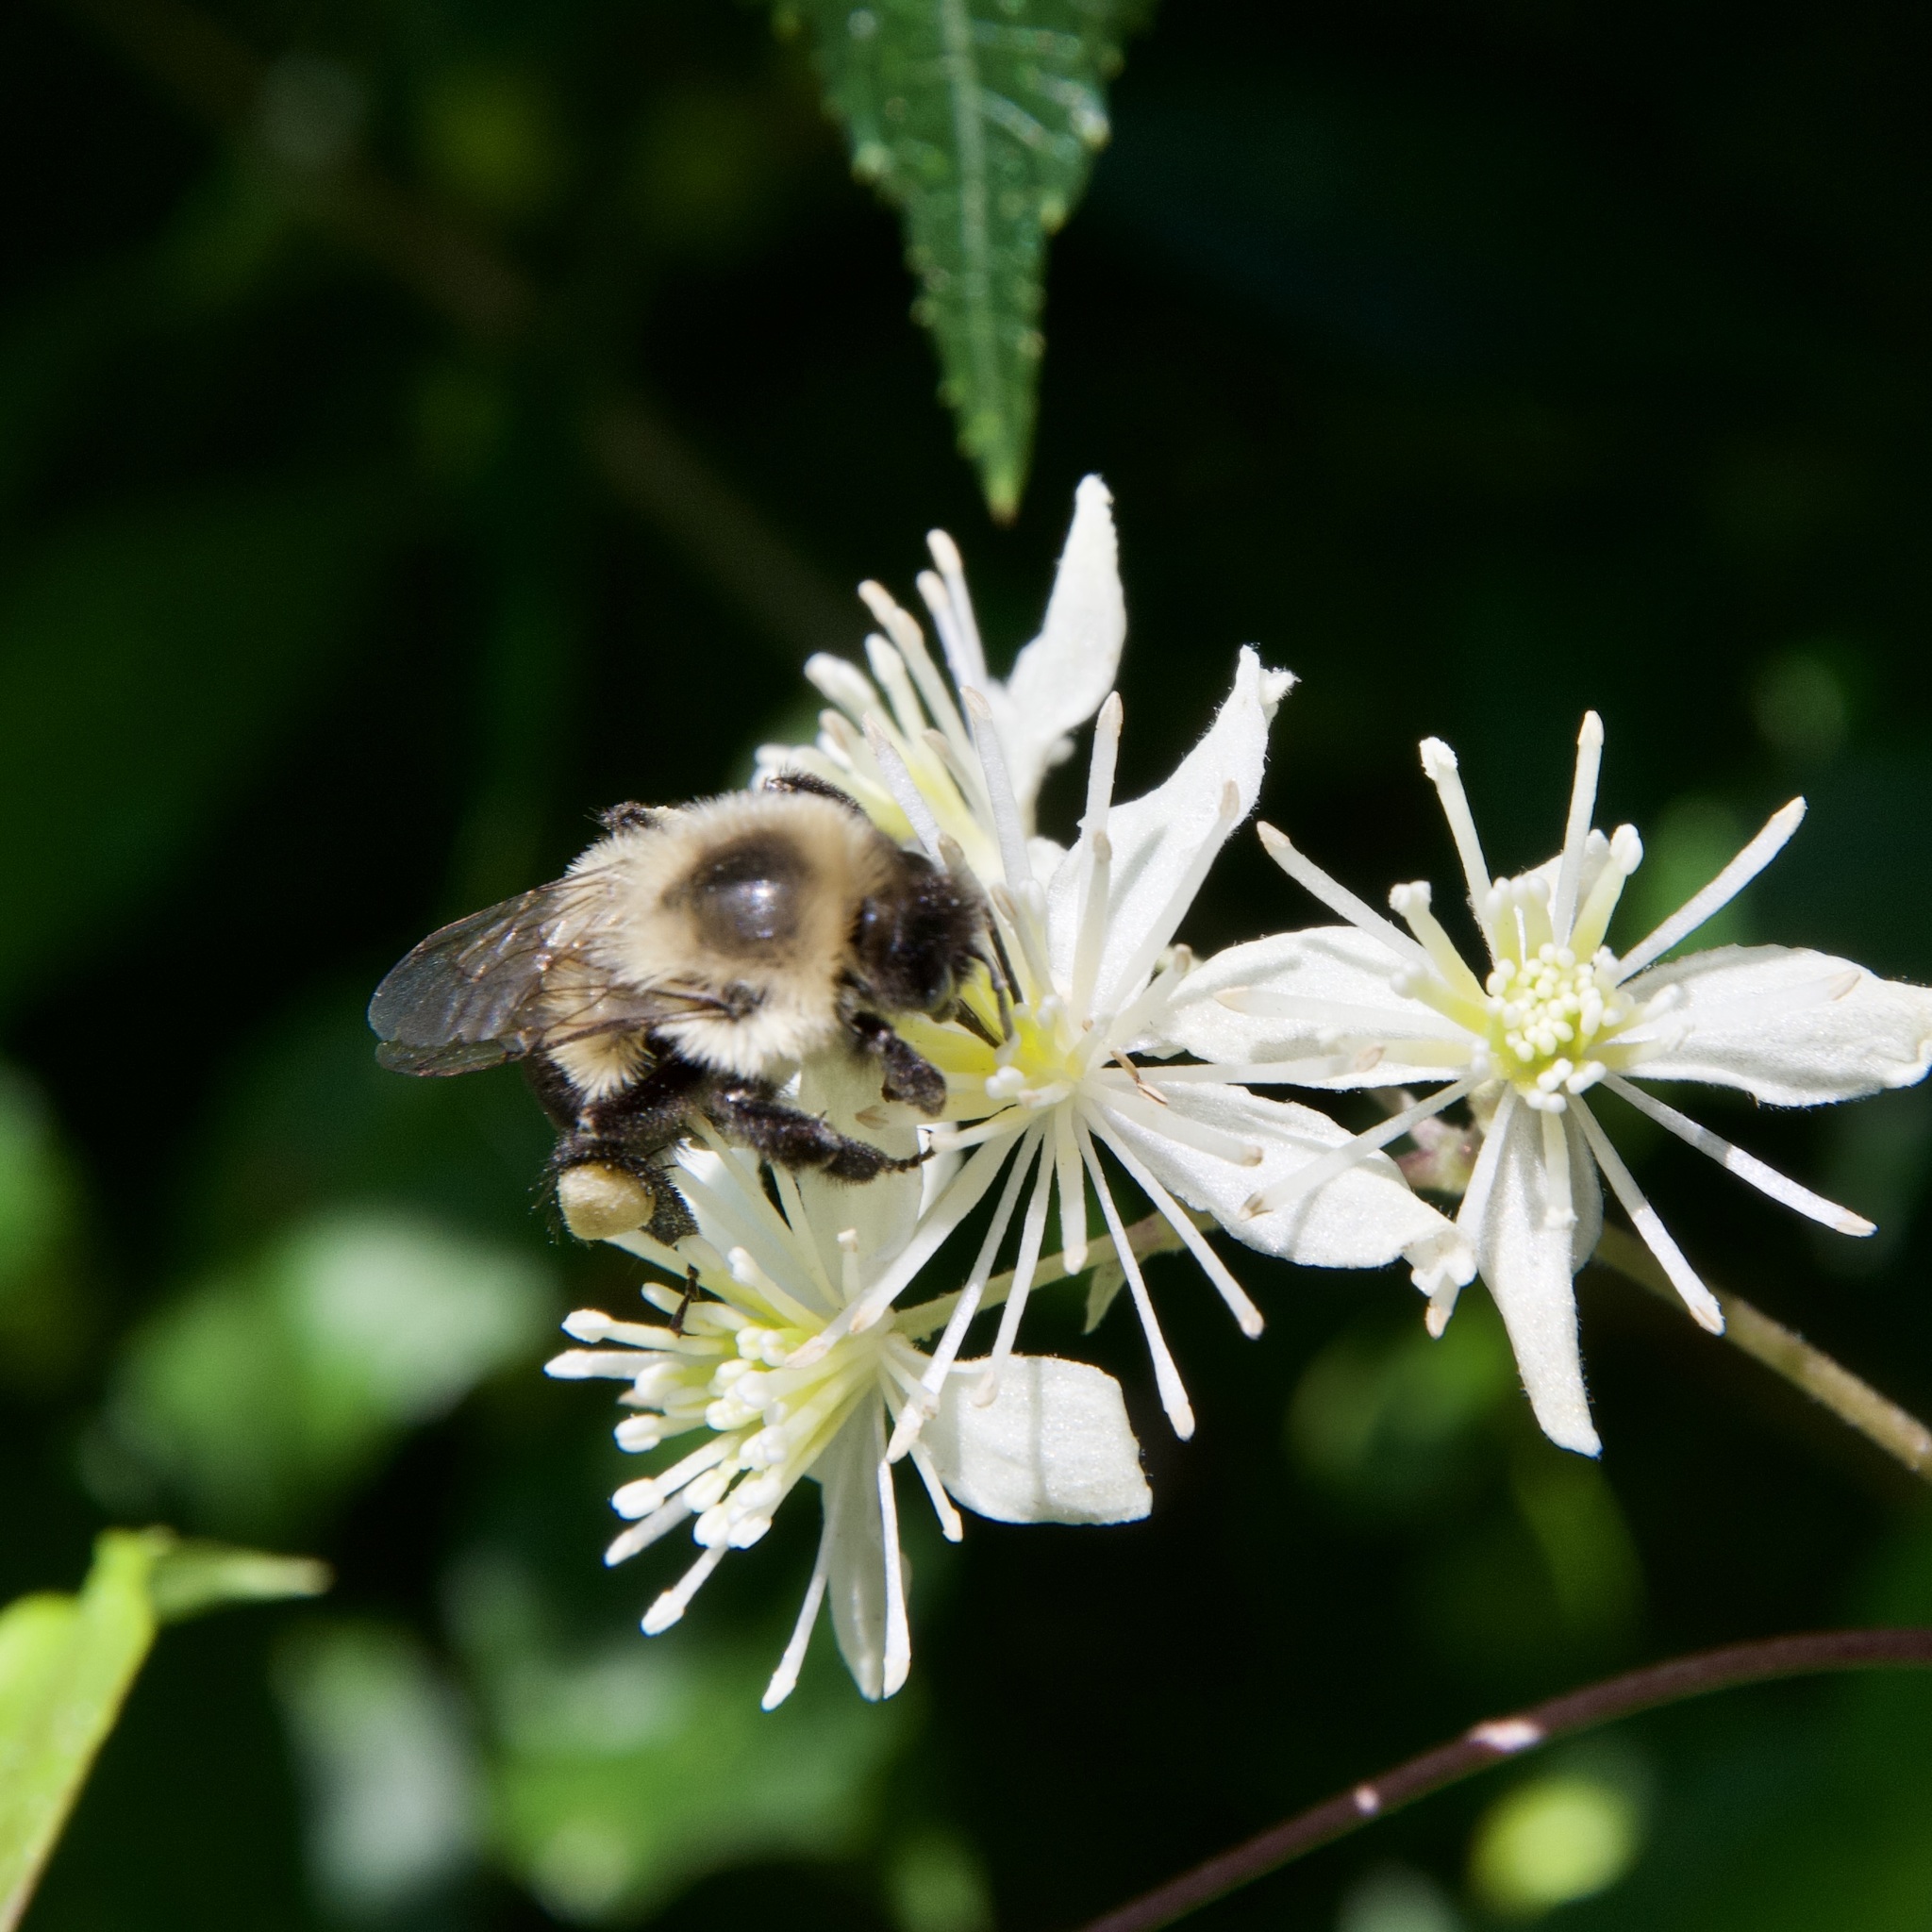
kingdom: Animalia
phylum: Arthropoda
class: Insecta
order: Hymenoptera
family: Apidae
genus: Bombus
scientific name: Bombus impatiens
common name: Common eastern bumble bee
